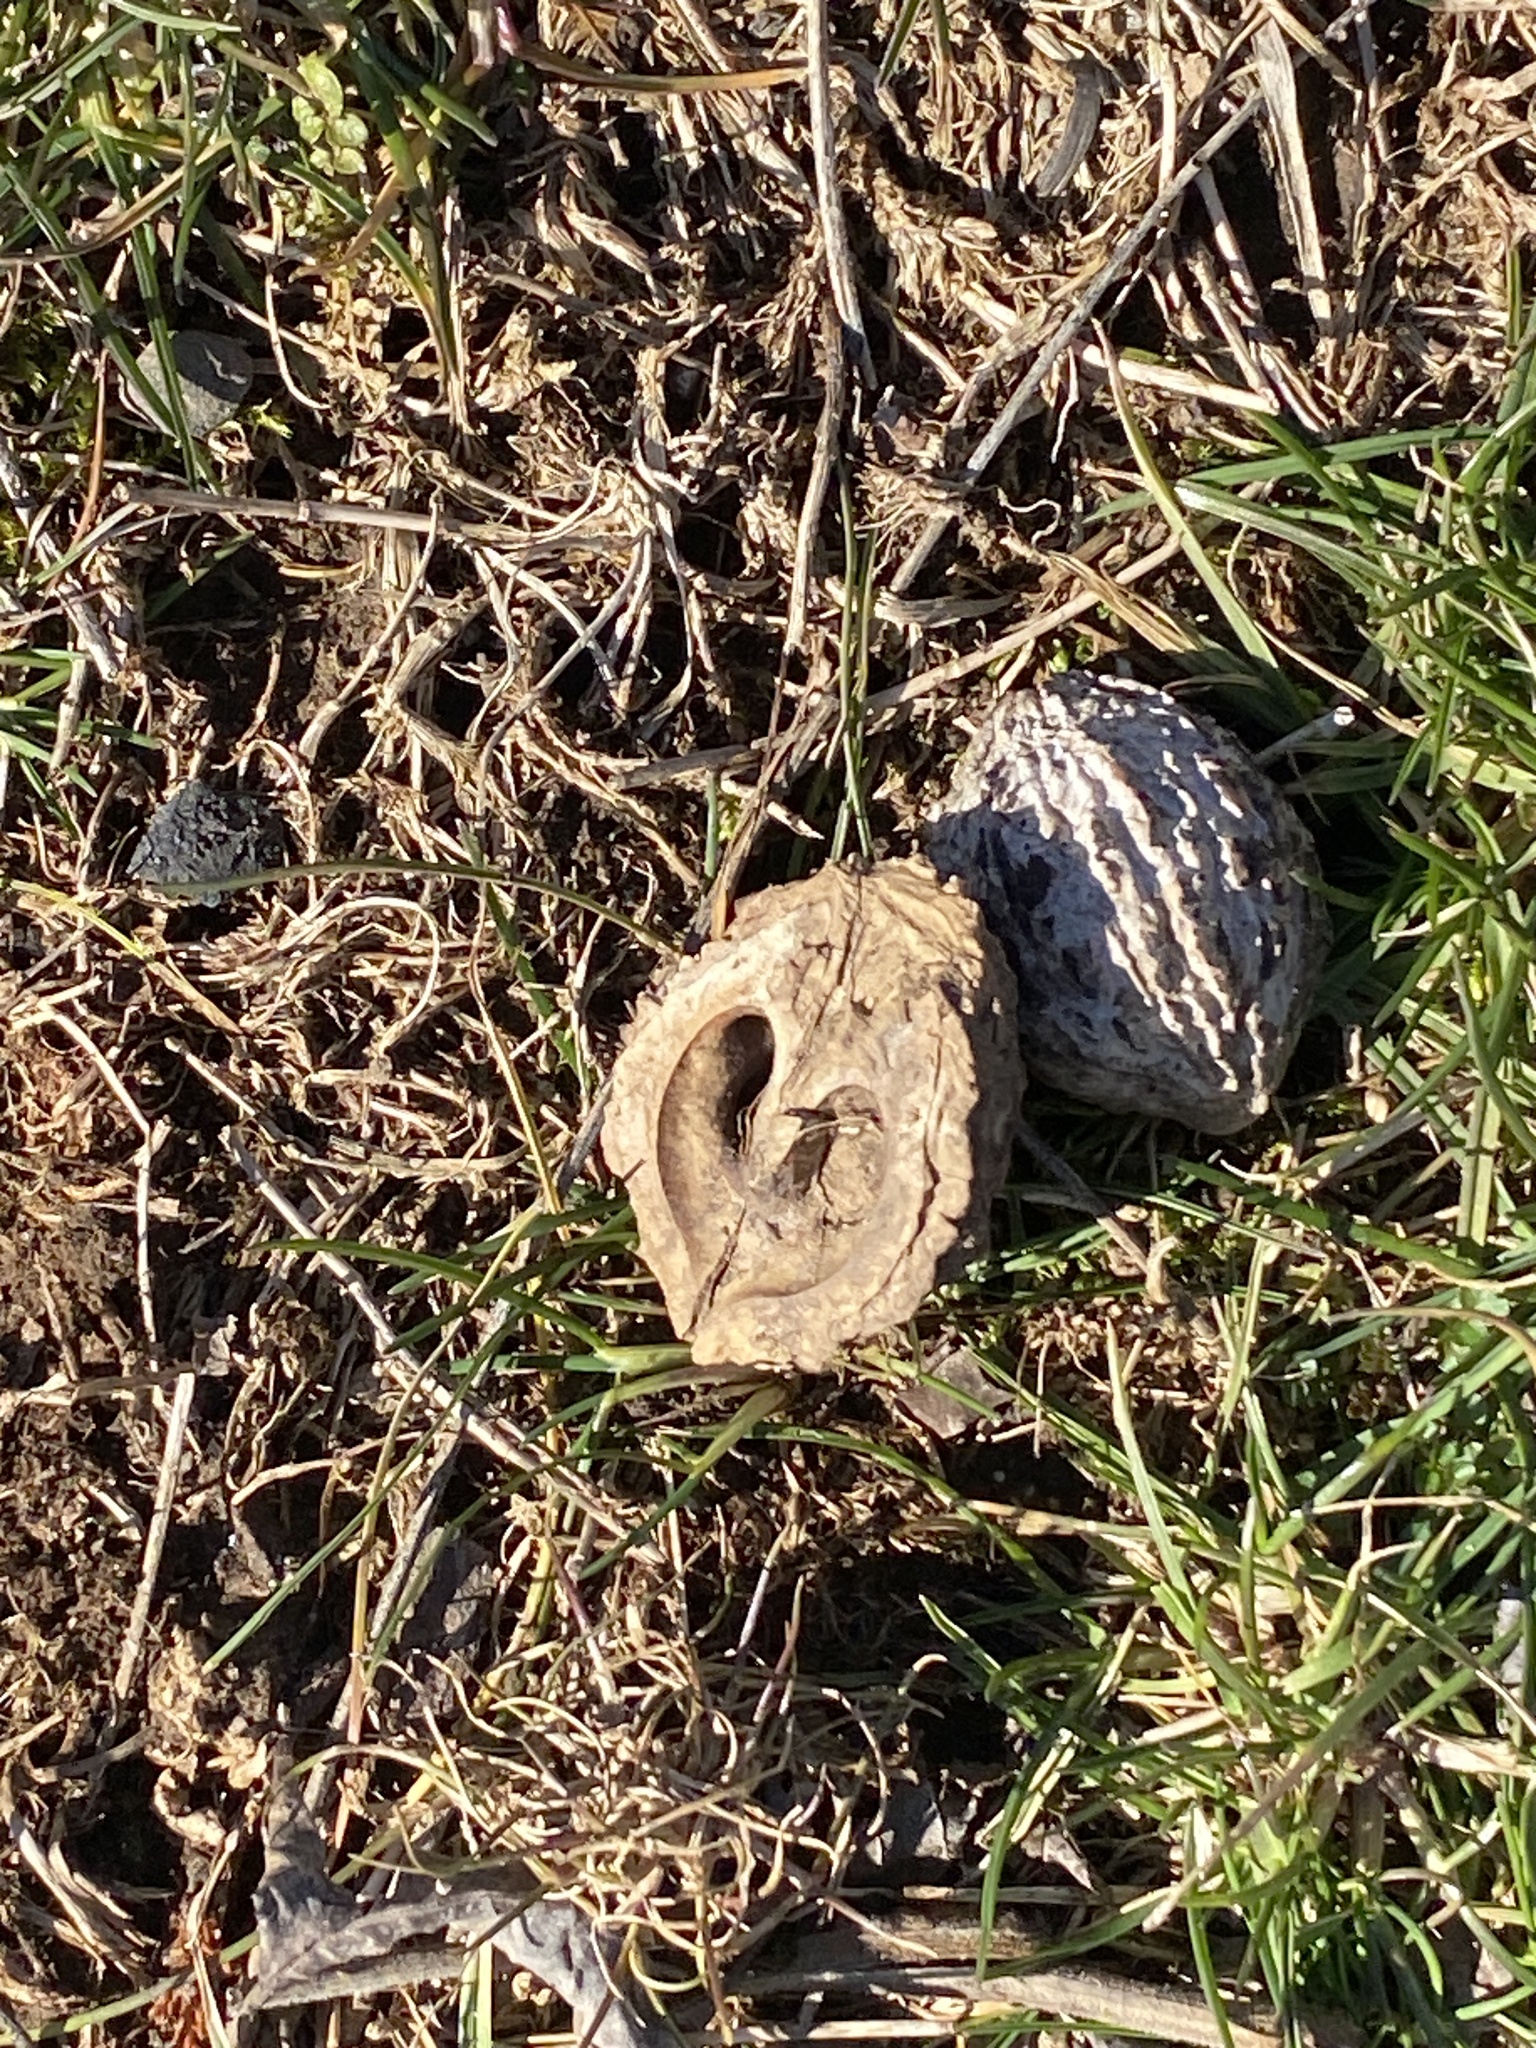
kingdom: Plantae
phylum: Tracheophyta
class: Magnoliopsida
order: Fagales
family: Juglandaceae
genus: Juglans
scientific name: Juglans nigra
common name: Black walnut
